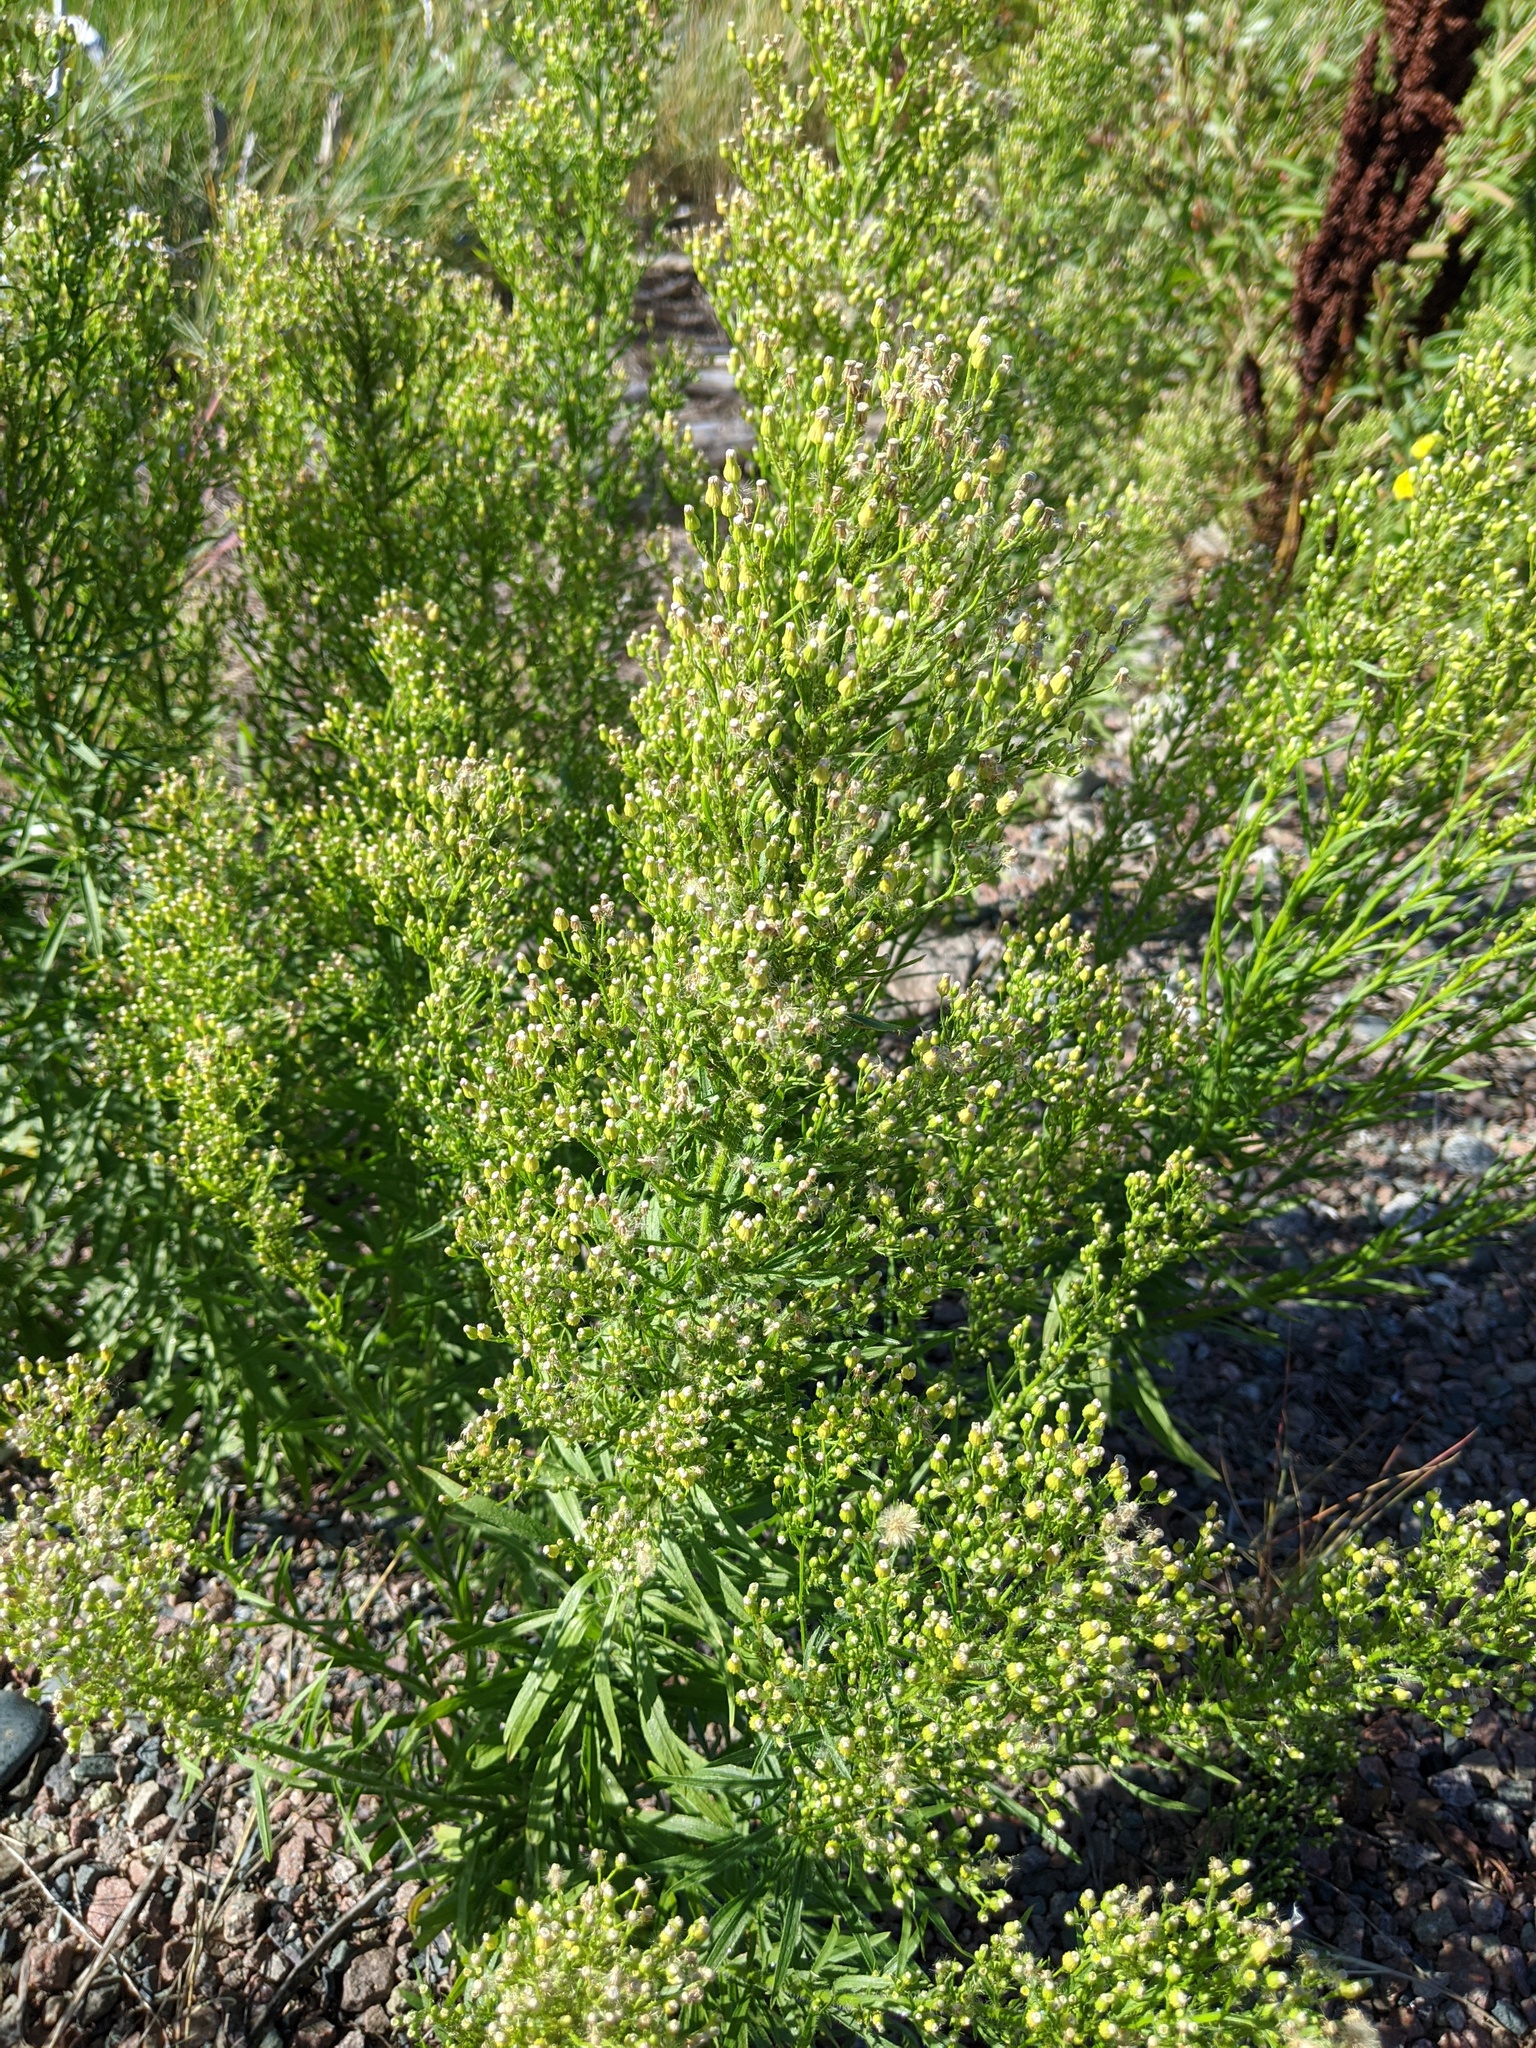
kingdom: Plantae
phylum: Tracheophyta
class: Magnoliopsida
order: Asterales
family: Asteraceae
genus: Erigeron
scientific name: Erigeron canadensis
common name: Canadian fleabane
